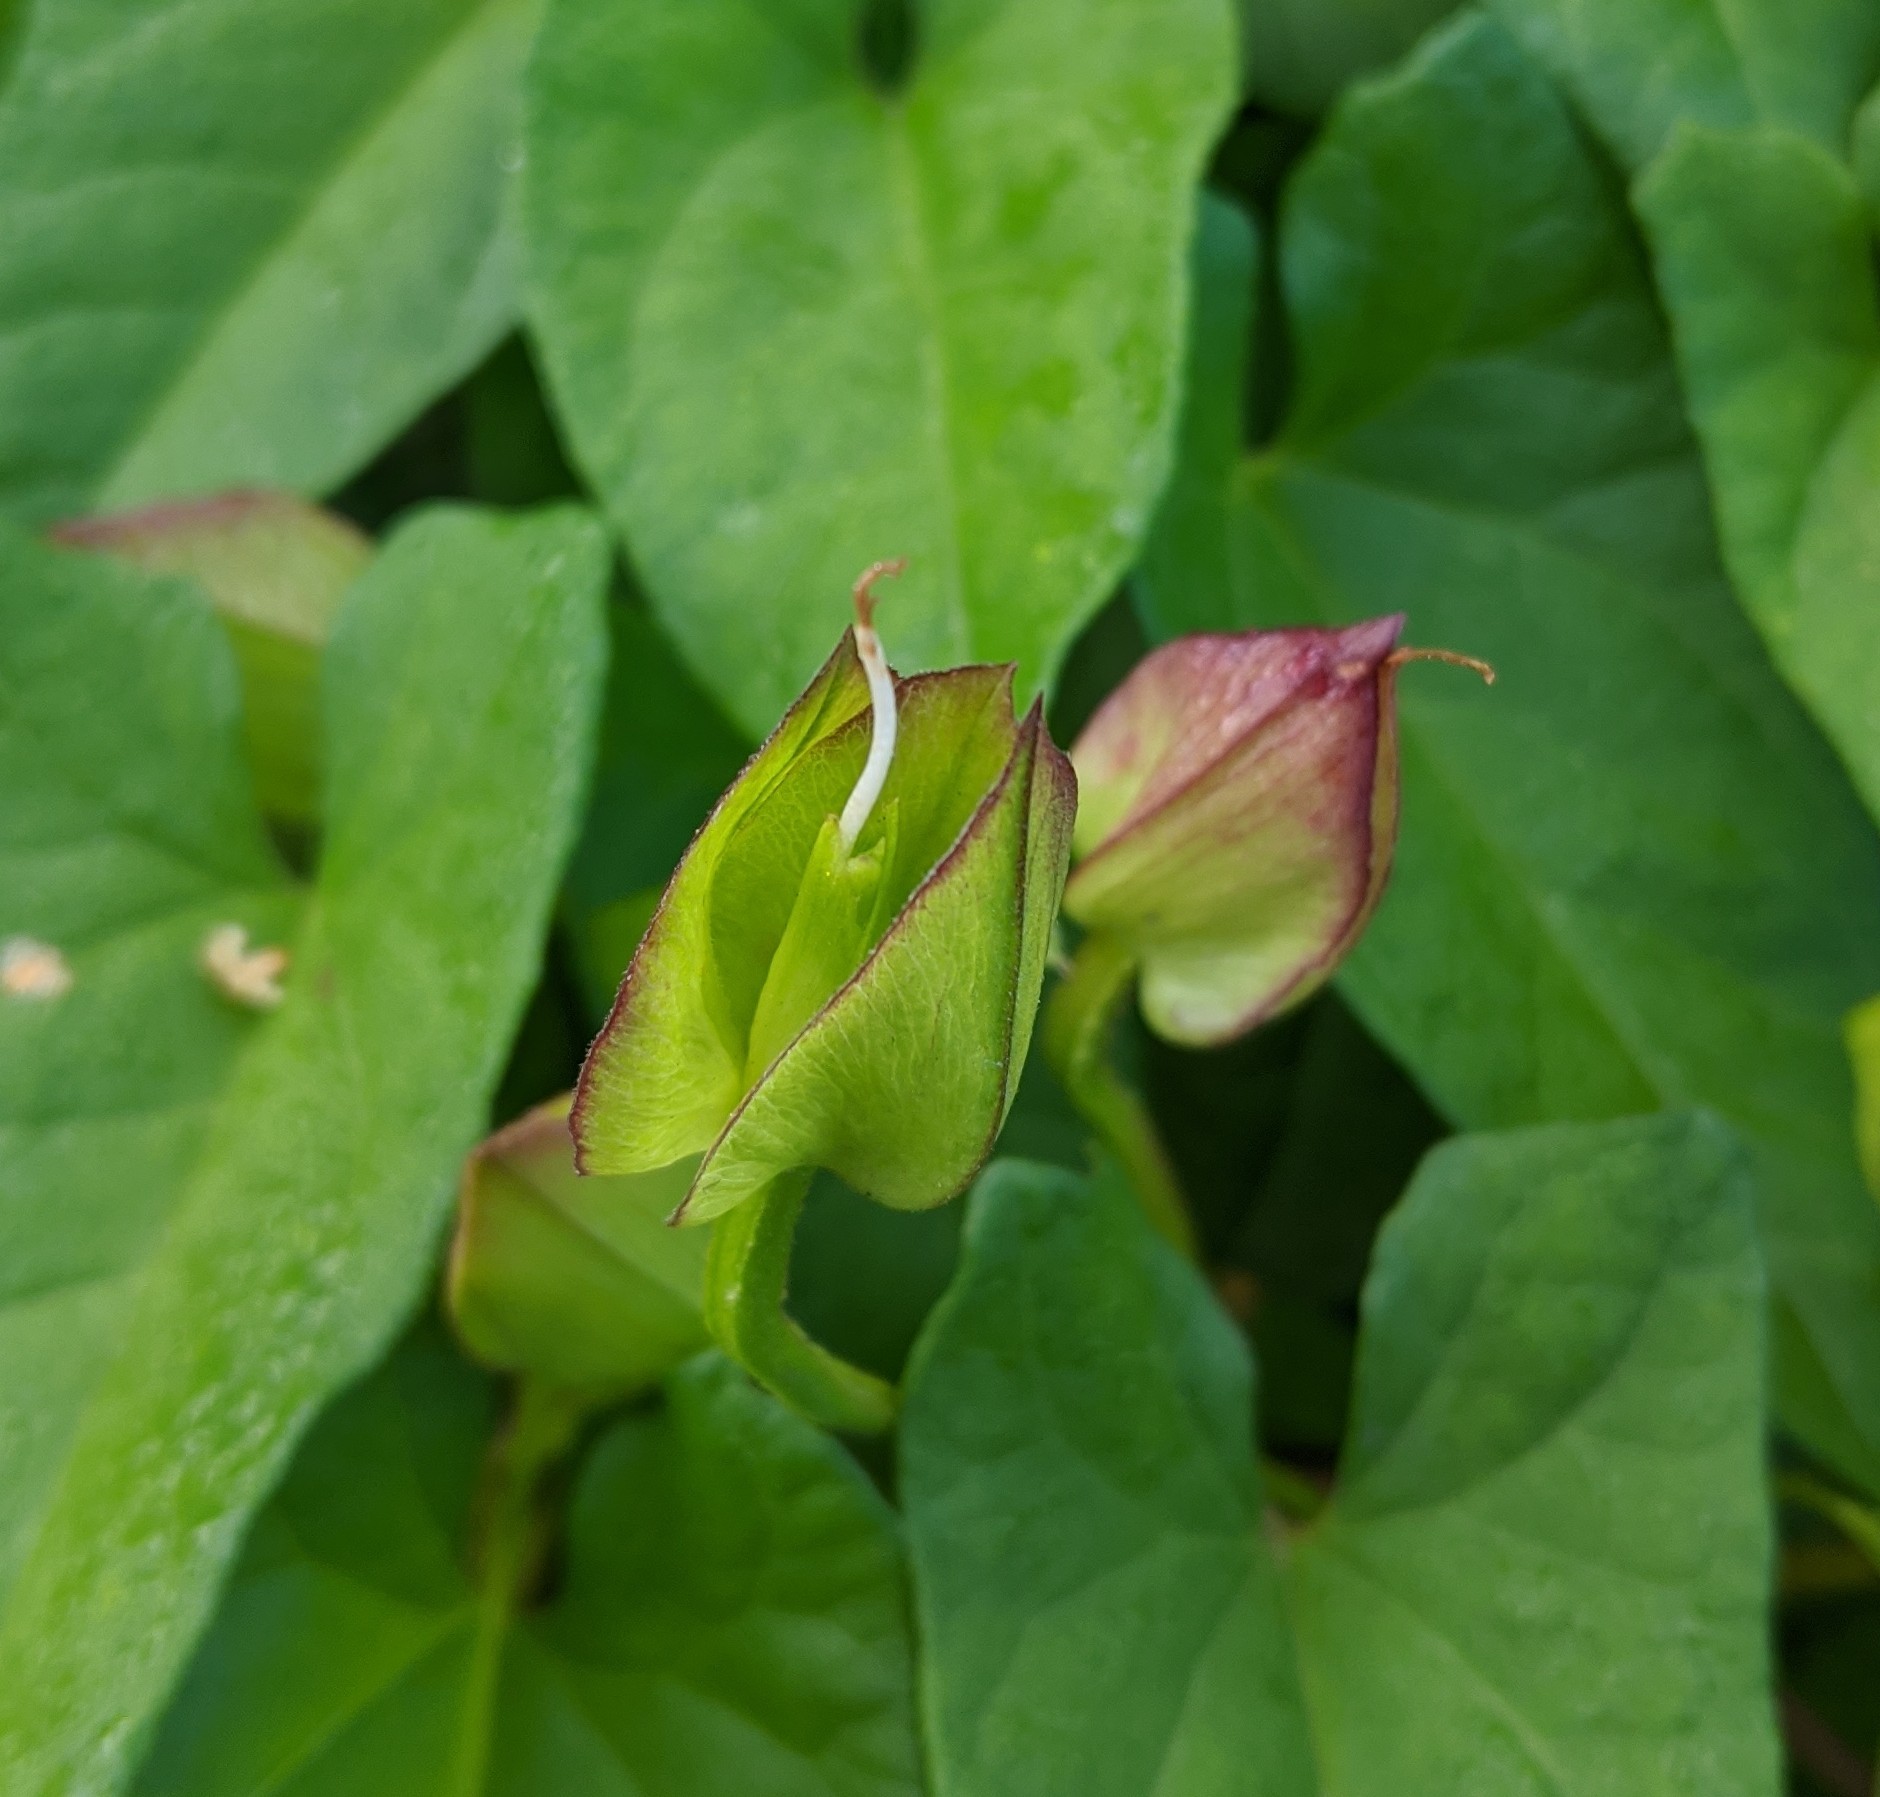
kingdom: Plantae
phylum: Tracheophyta
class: Magnoliopsida
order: Solanales
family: Convolvulaceae
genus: Calystegia
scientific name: Calystegia sepium
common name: Hedge bindweed
